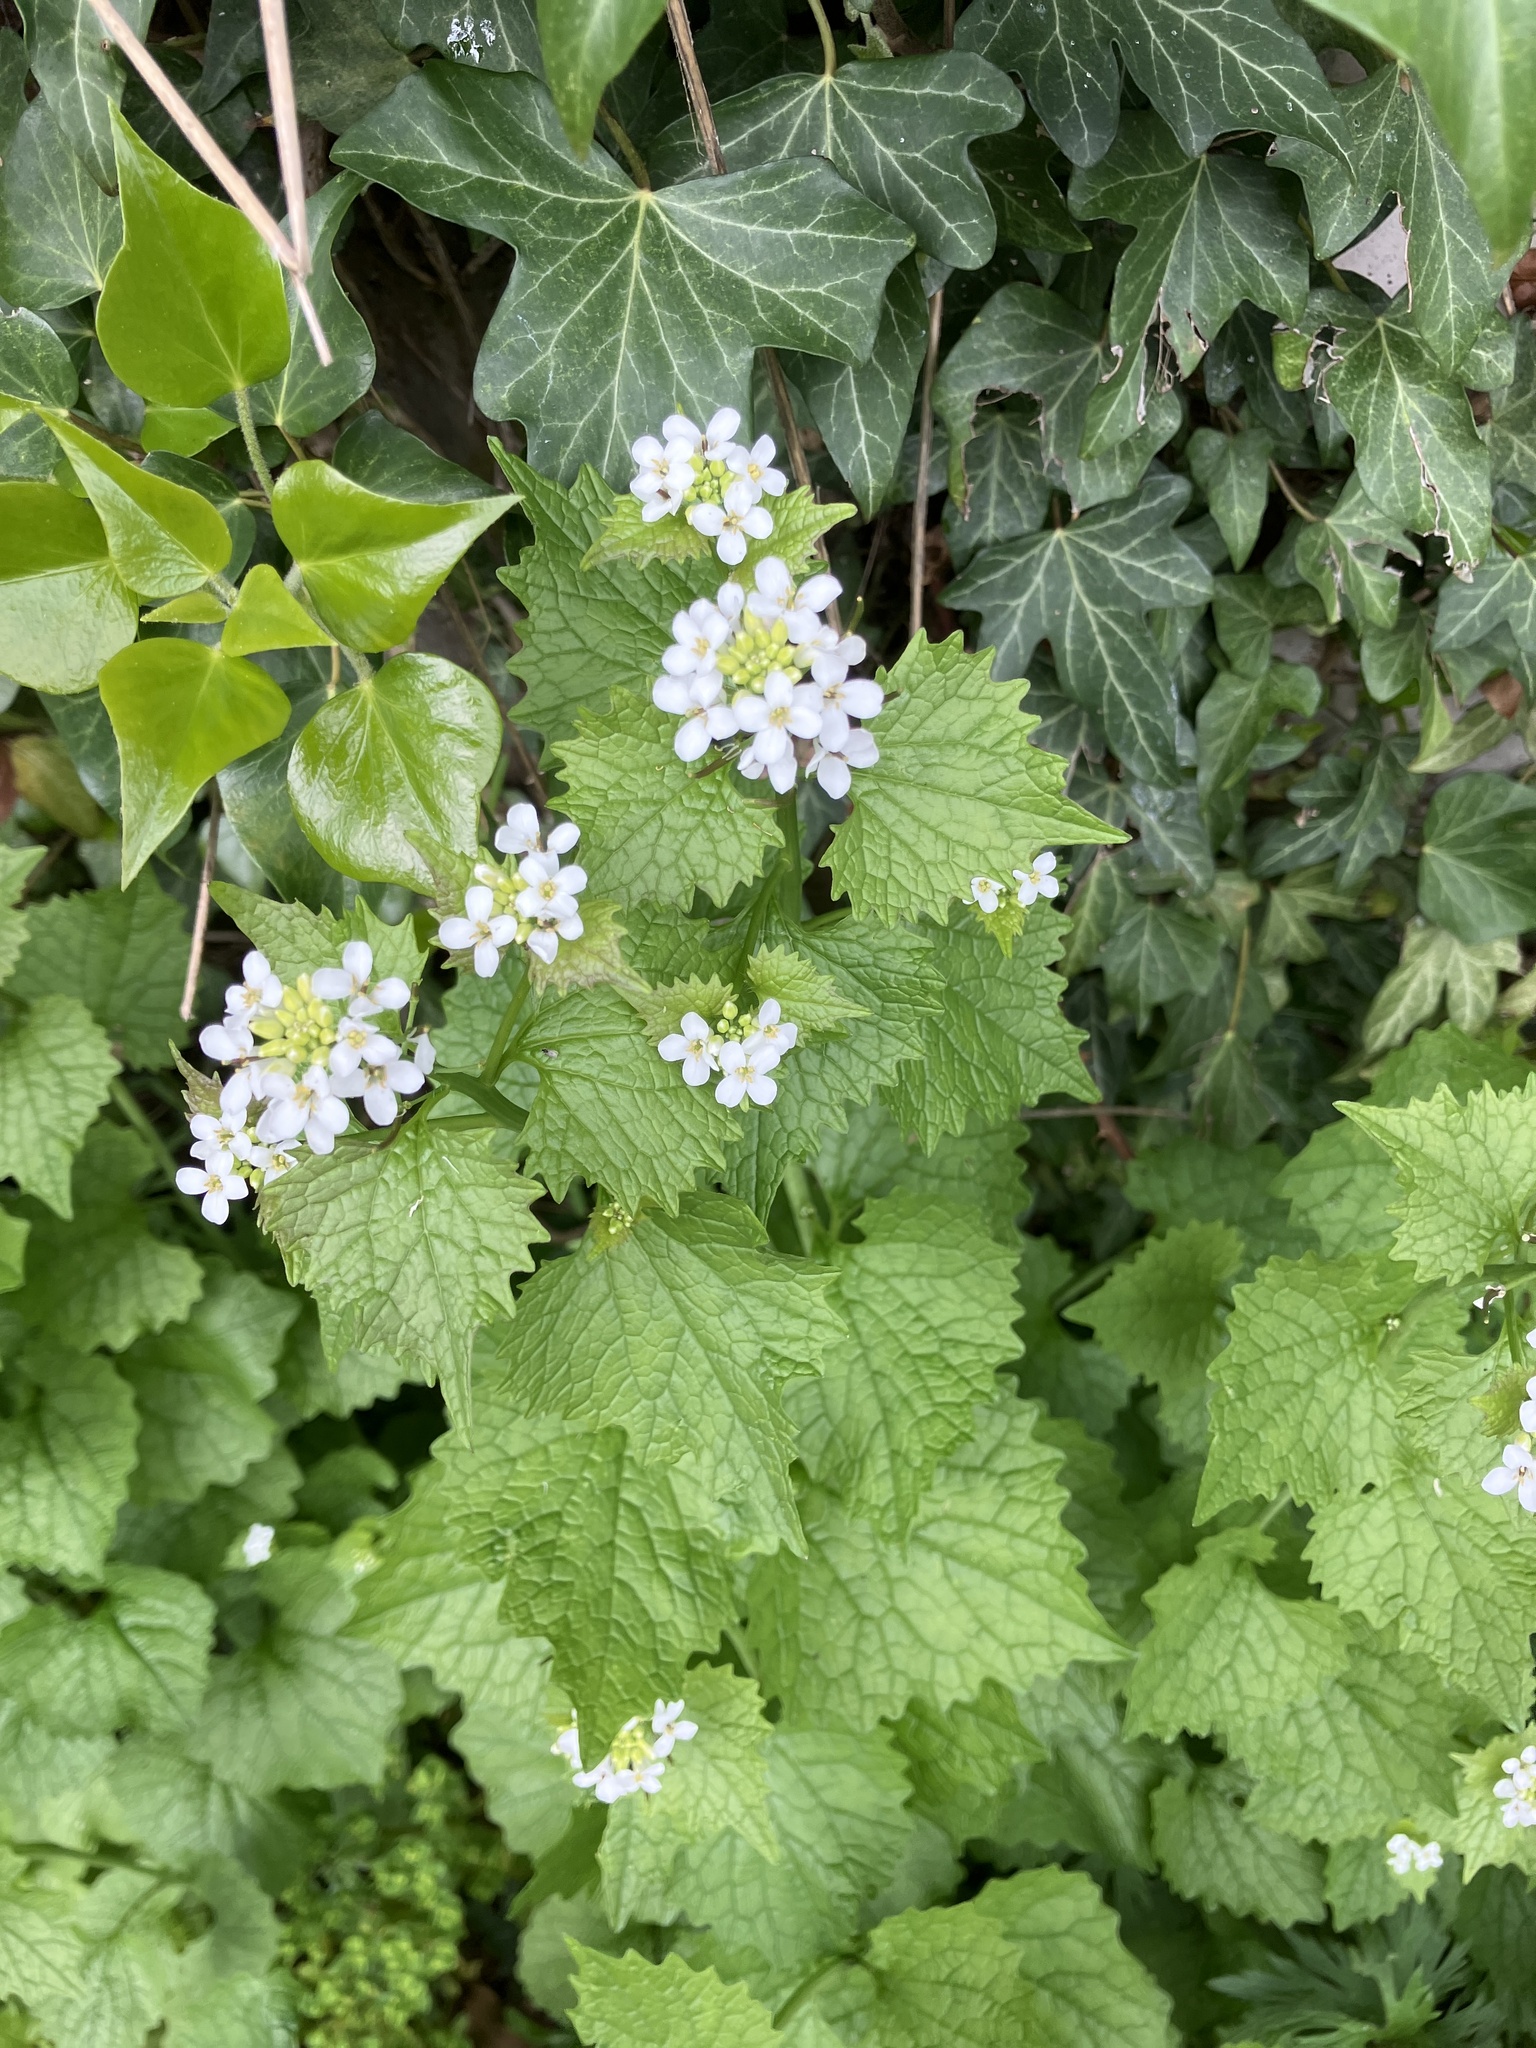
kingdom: Plantae
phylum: Tracheophyta
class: Magnoliopsida
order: Brassicales
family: Brassicaceae
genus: Alliaria
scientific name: Alliaria petiolata
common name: Garlic mustard
